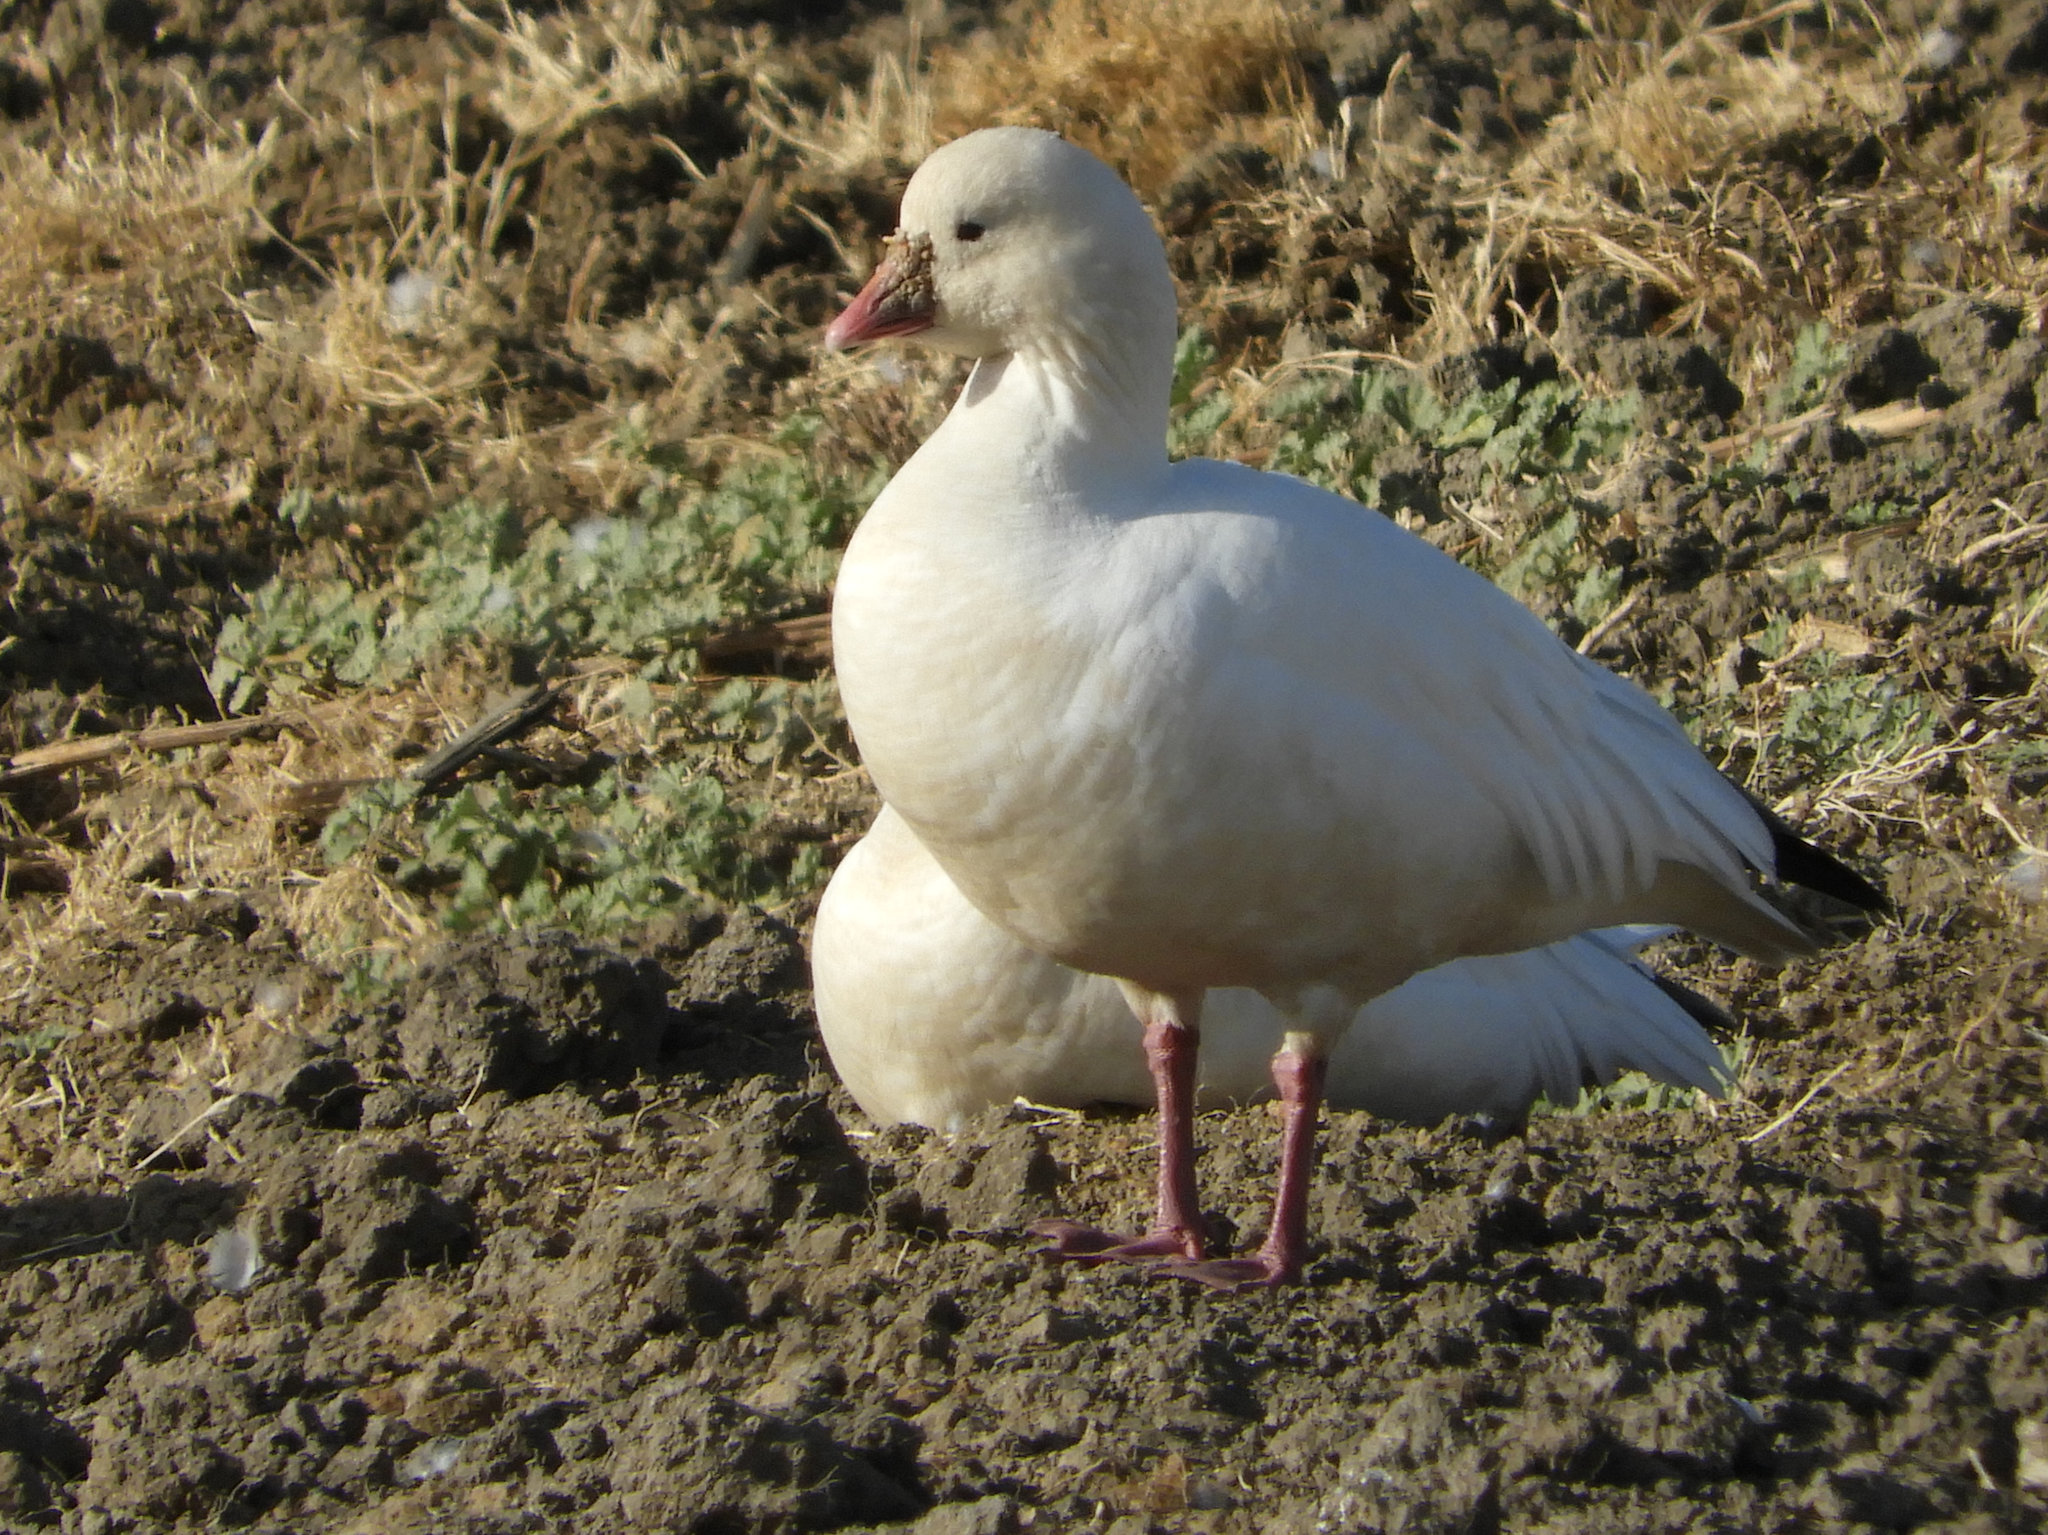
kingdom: Animalia
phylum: Chordata
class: Aves
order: Anseriformes
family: Anatidae
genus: Anser
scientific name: Anser rossii
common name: Ross's goose
